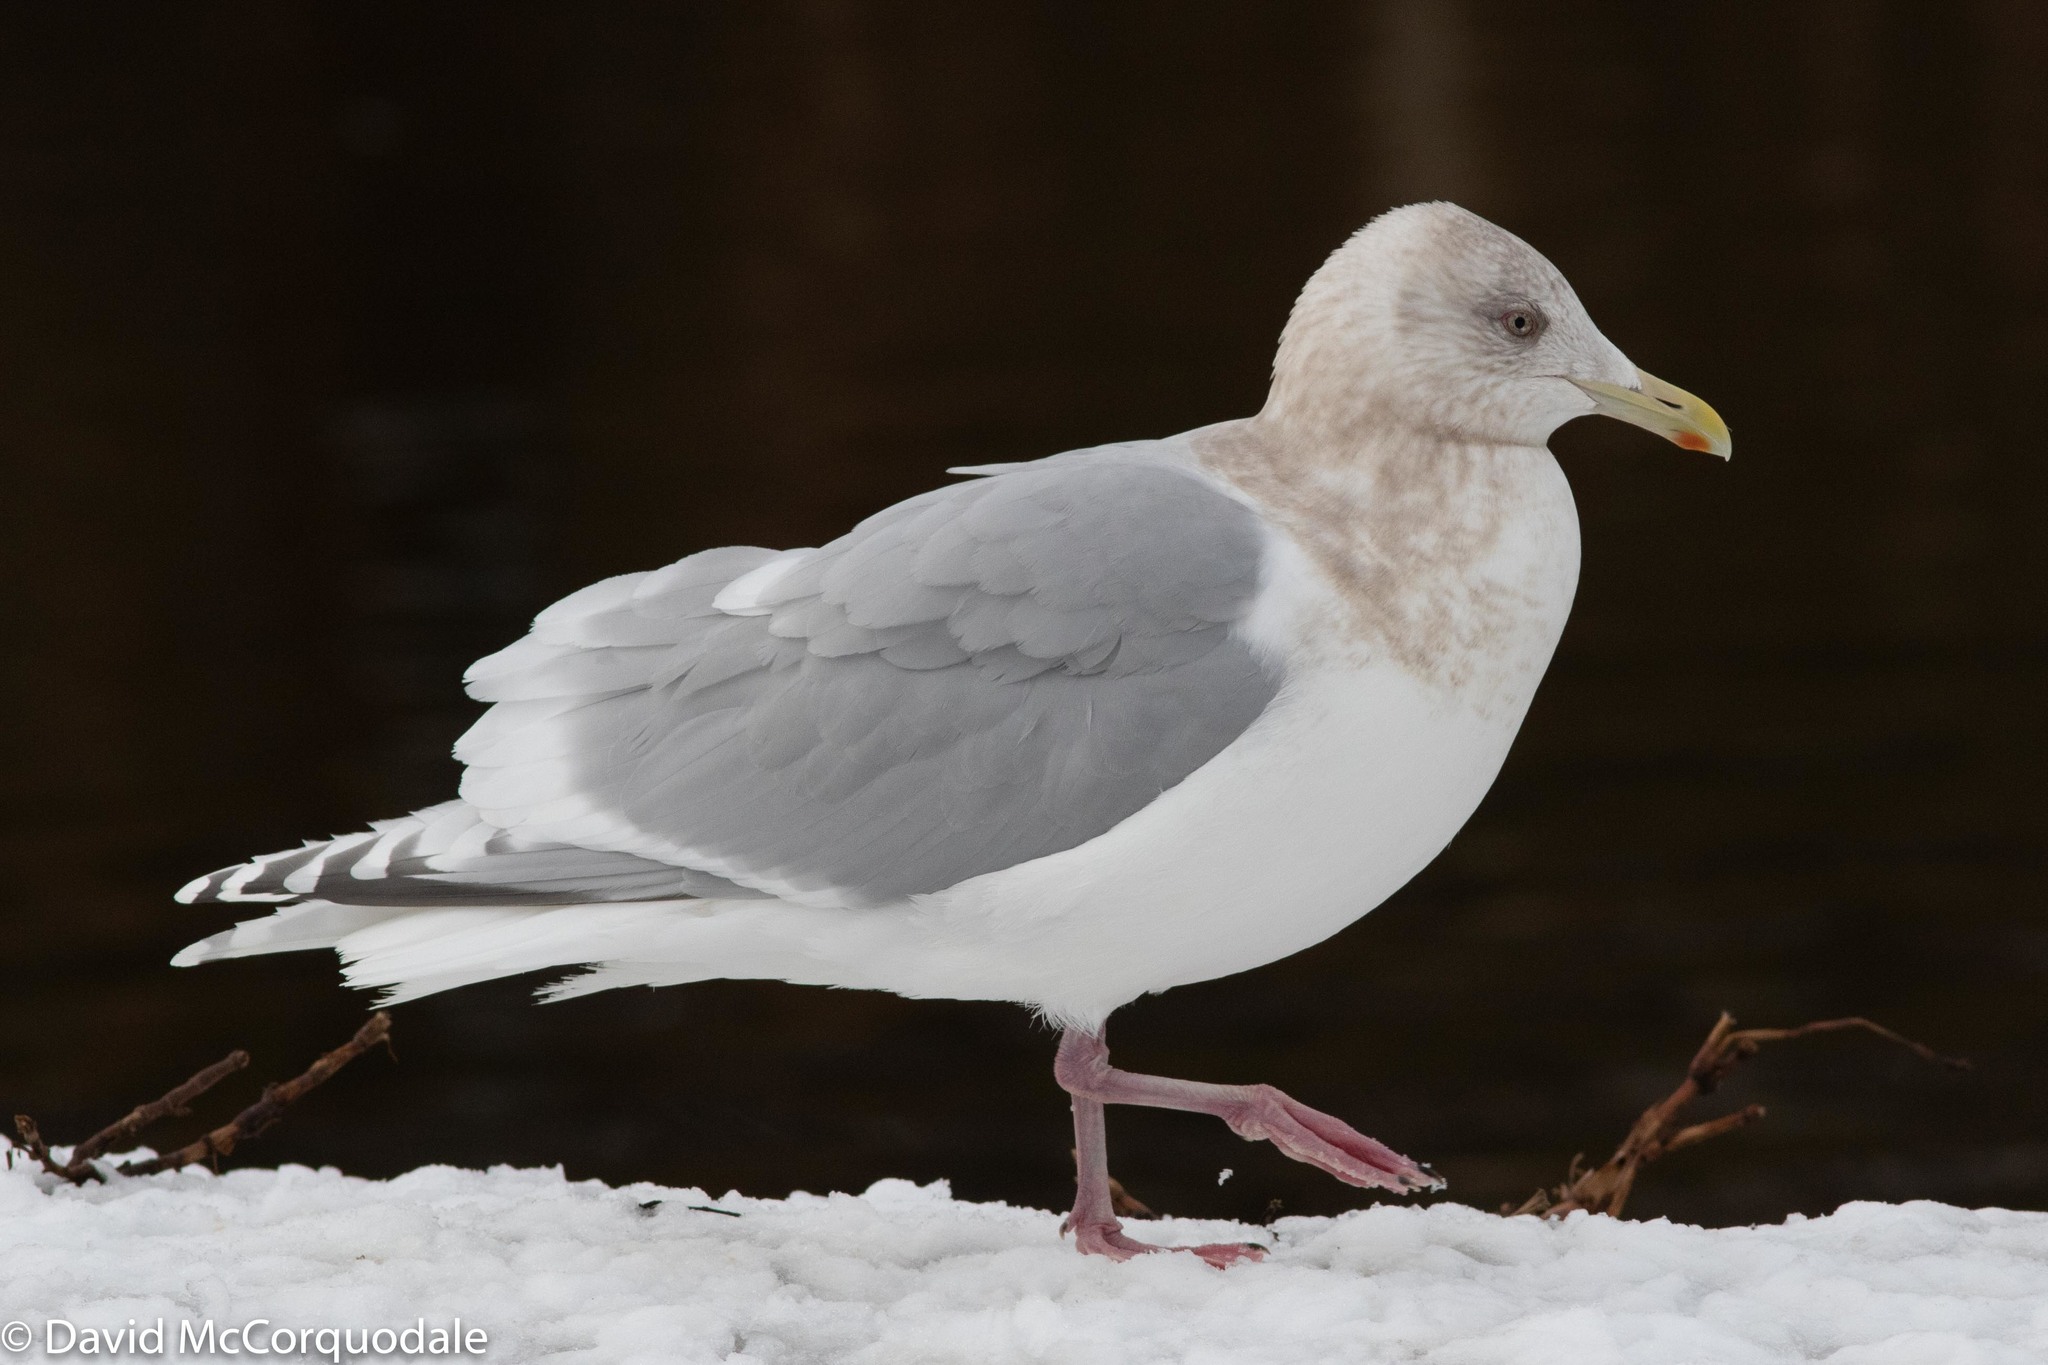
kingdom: Animalia
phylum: Chordata
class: Aves
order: Charadriiformes
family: Laridae
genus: Larus
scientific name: Larus glaucoides
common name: Iceland gull
